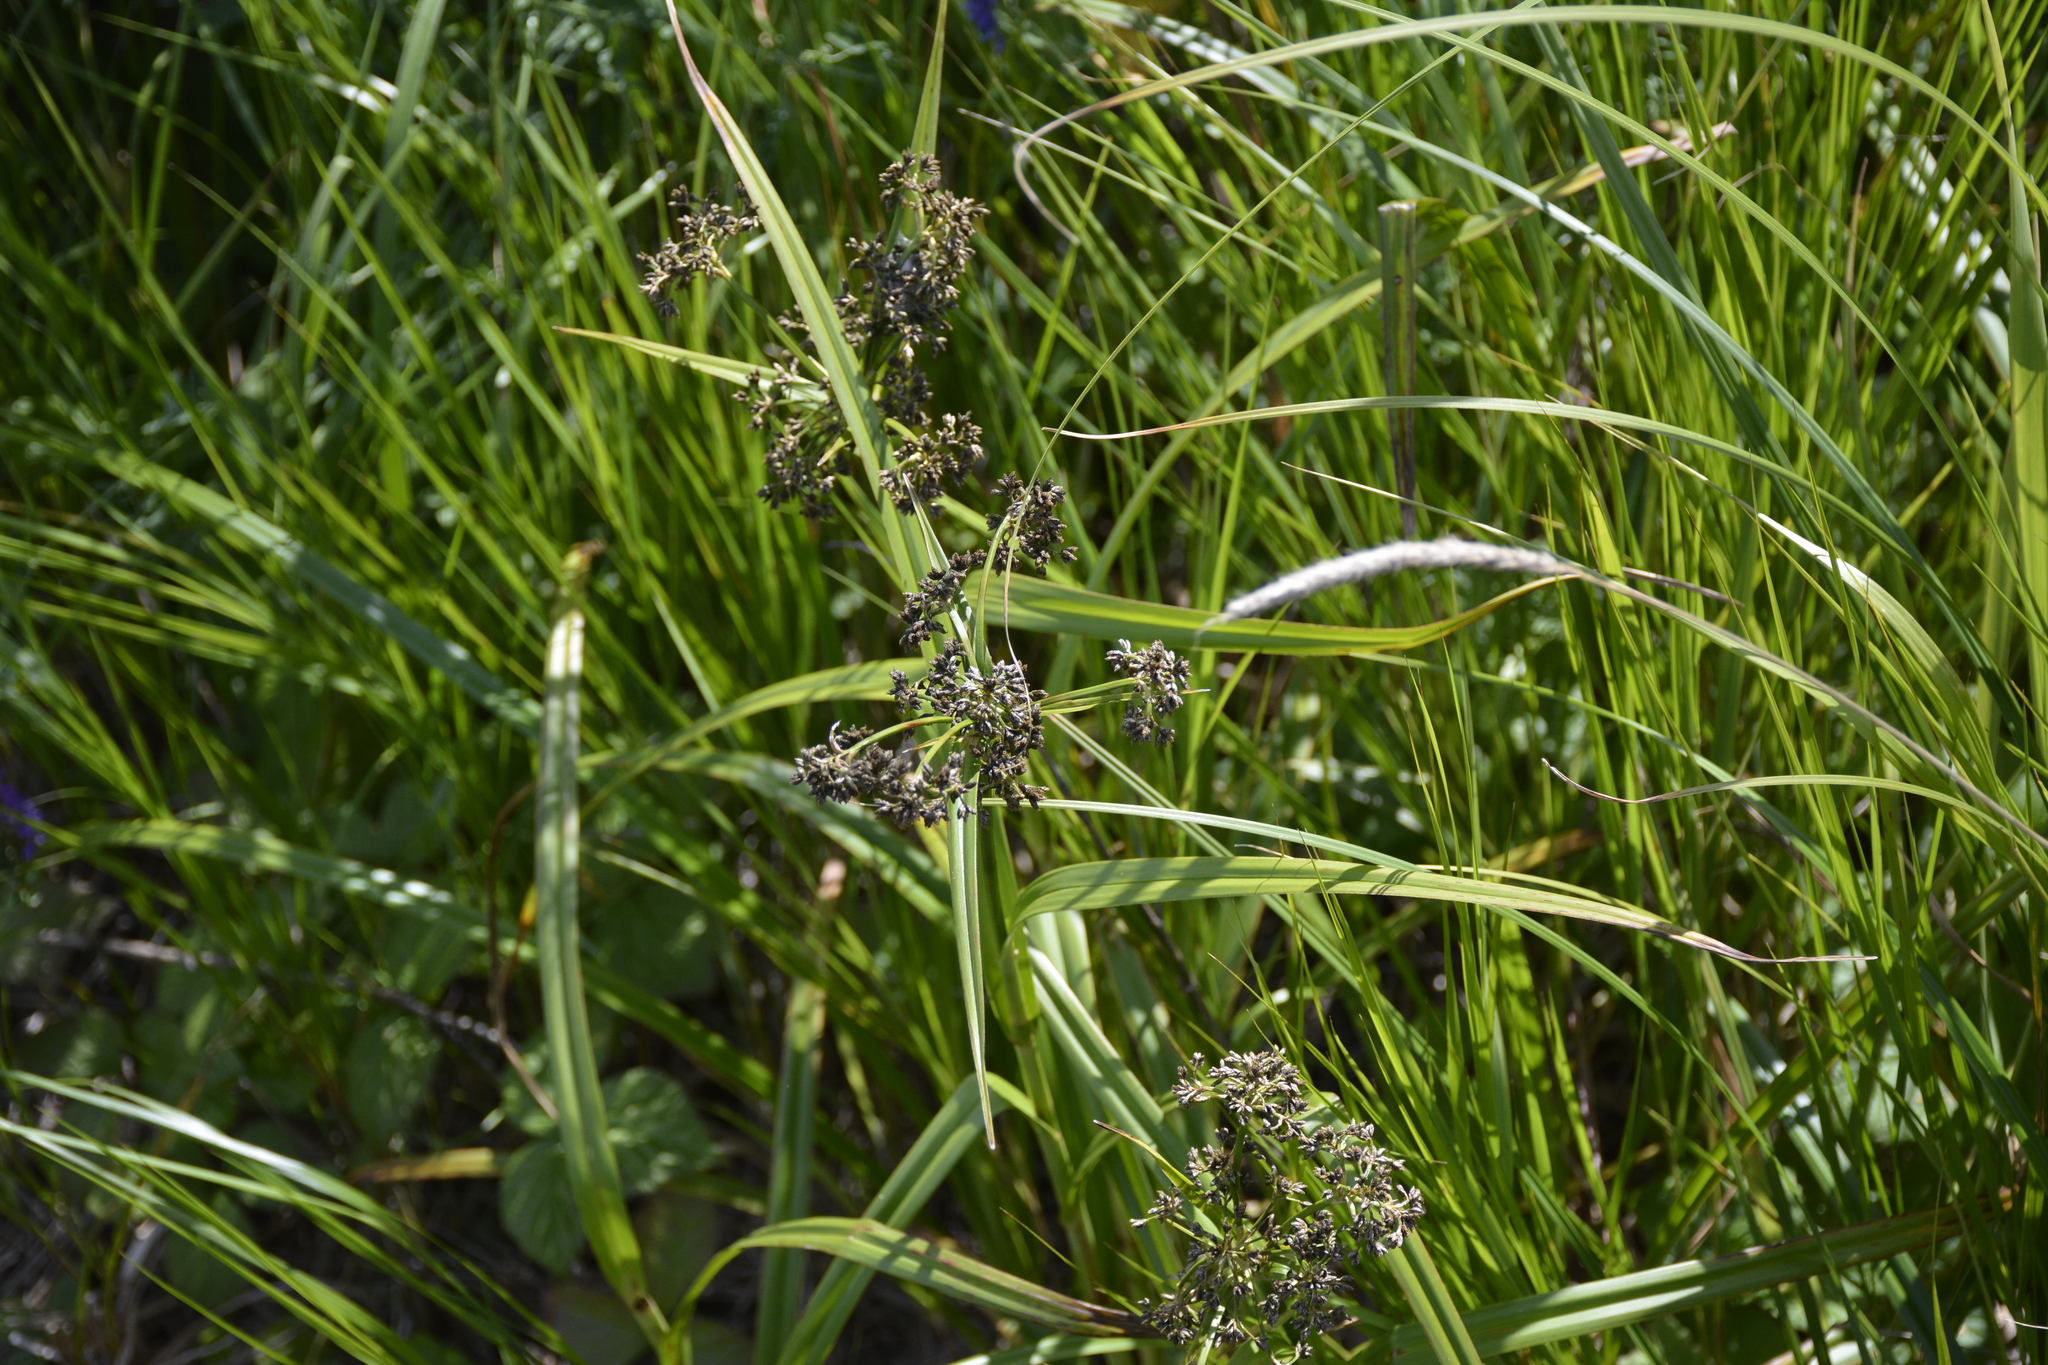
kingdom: Plantae
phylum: Tracheophyta
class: Liliopsida
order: Poales
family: Cyperaceae
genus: Scirpus
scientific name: Scirpus sylvaticus
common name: Wood club-rush
